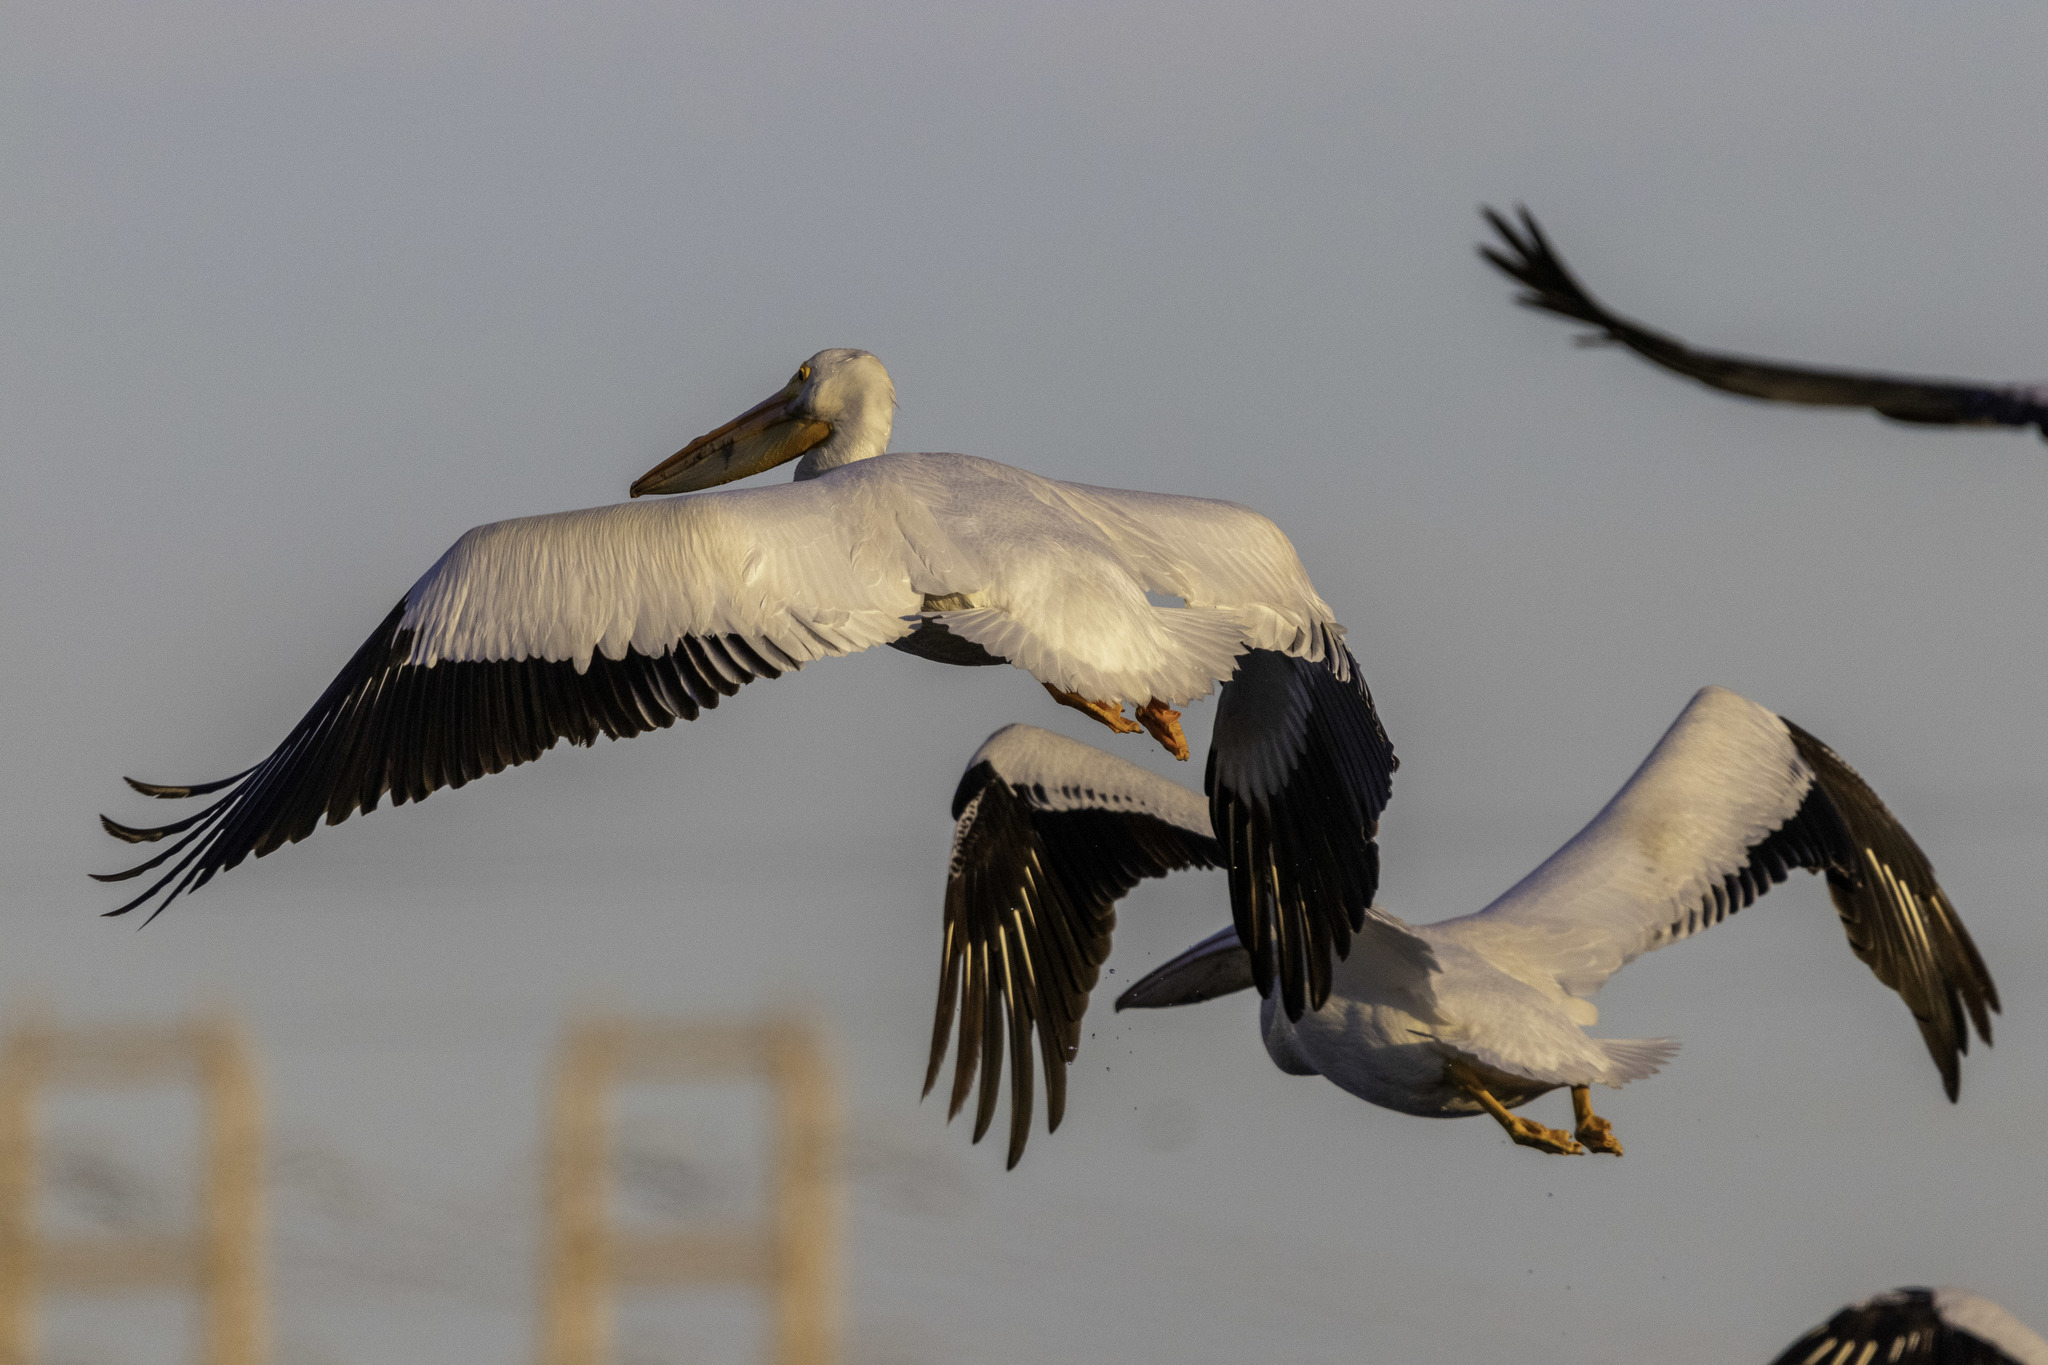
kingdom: Animalia
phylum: Chordata
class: Aves
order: Pelecaniformes
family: Pelecanidae
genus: Pelecanus
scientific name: Pelecanus erythrorhynchos
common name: American white pelican
